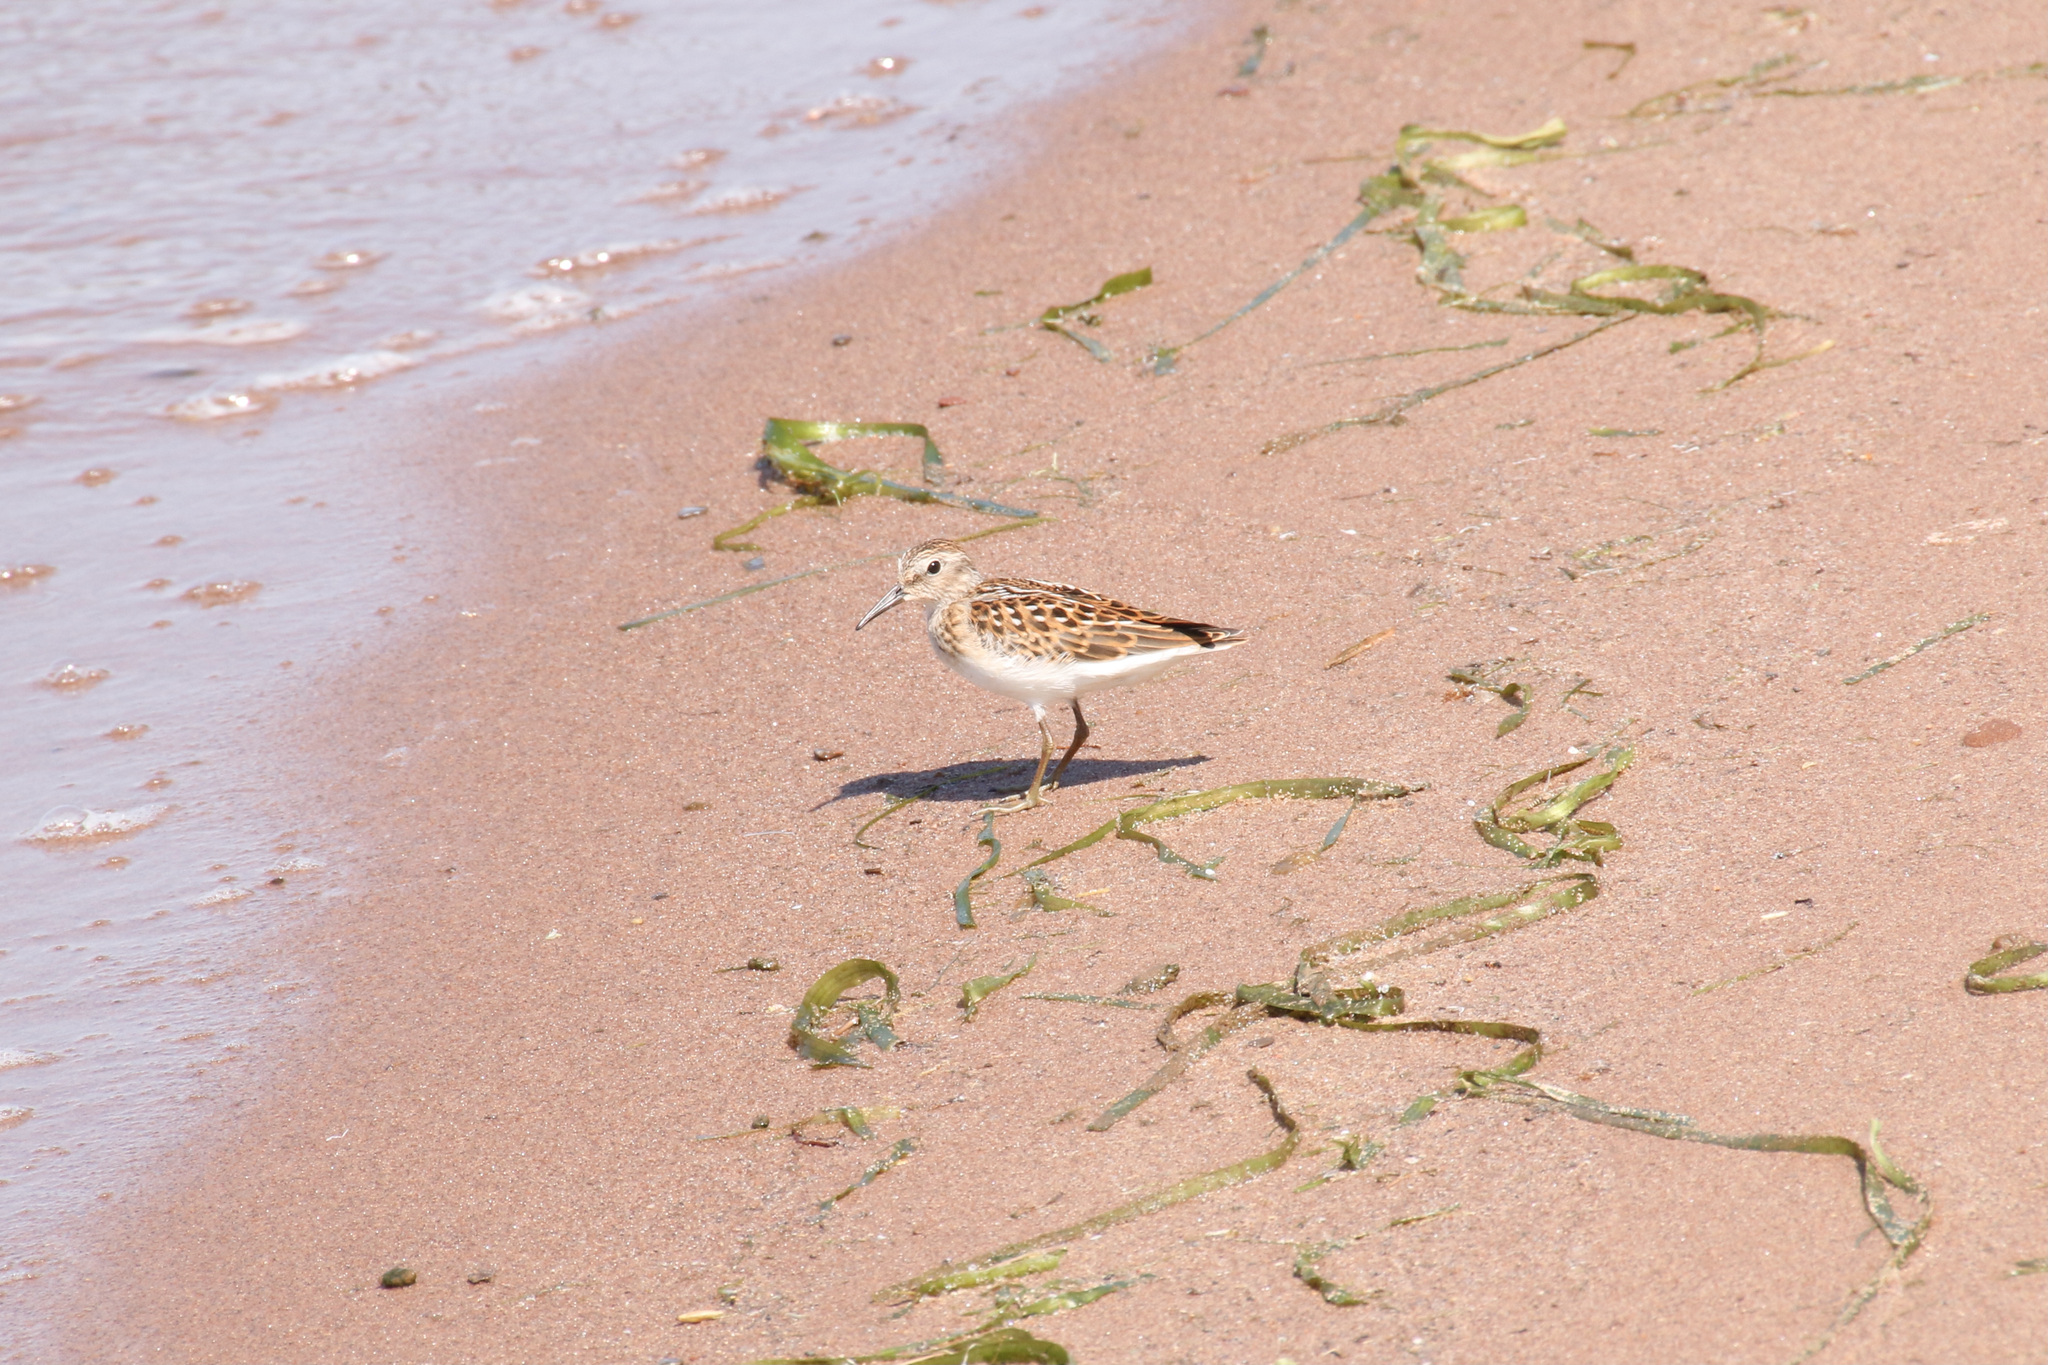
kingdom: Animalia
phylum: Chordata
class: Aves
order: Charadriiformes
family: Scolopacidae
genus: Calidris
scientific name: Calidris minutilla
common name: Least sandpiper
